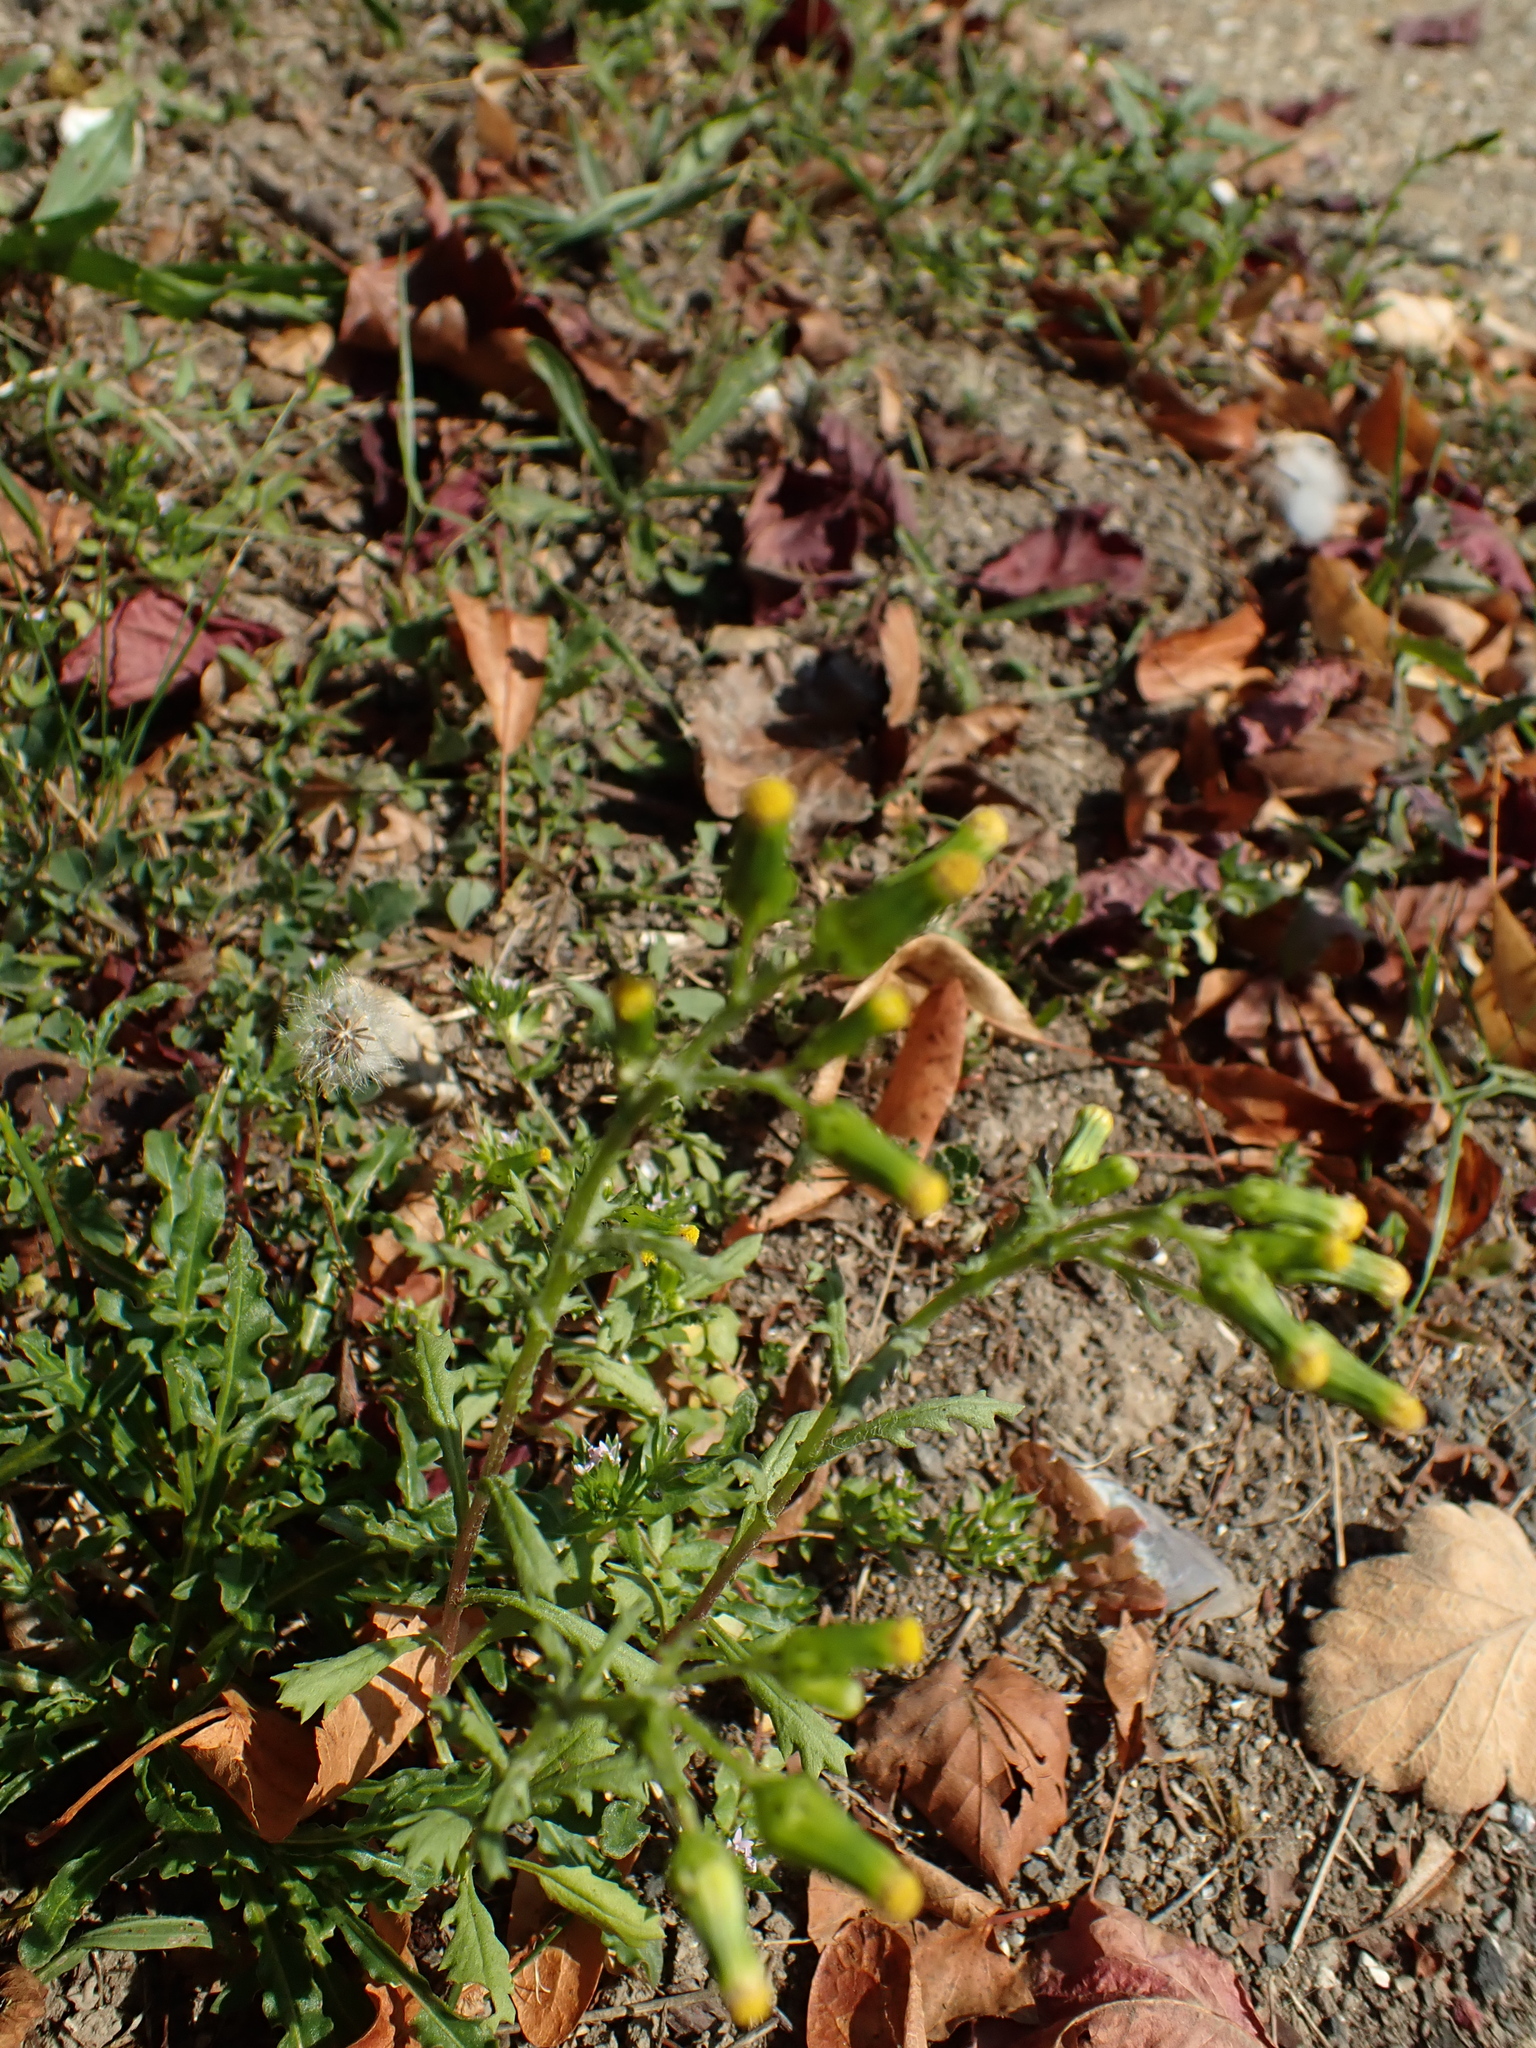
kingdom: Plantae
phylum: Tracheophyta
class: Magnoliopsida
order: Asterales
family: Asteraceae
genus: Senecio
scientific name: Senecio vulgaris
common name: Old-man-in-the-spring
